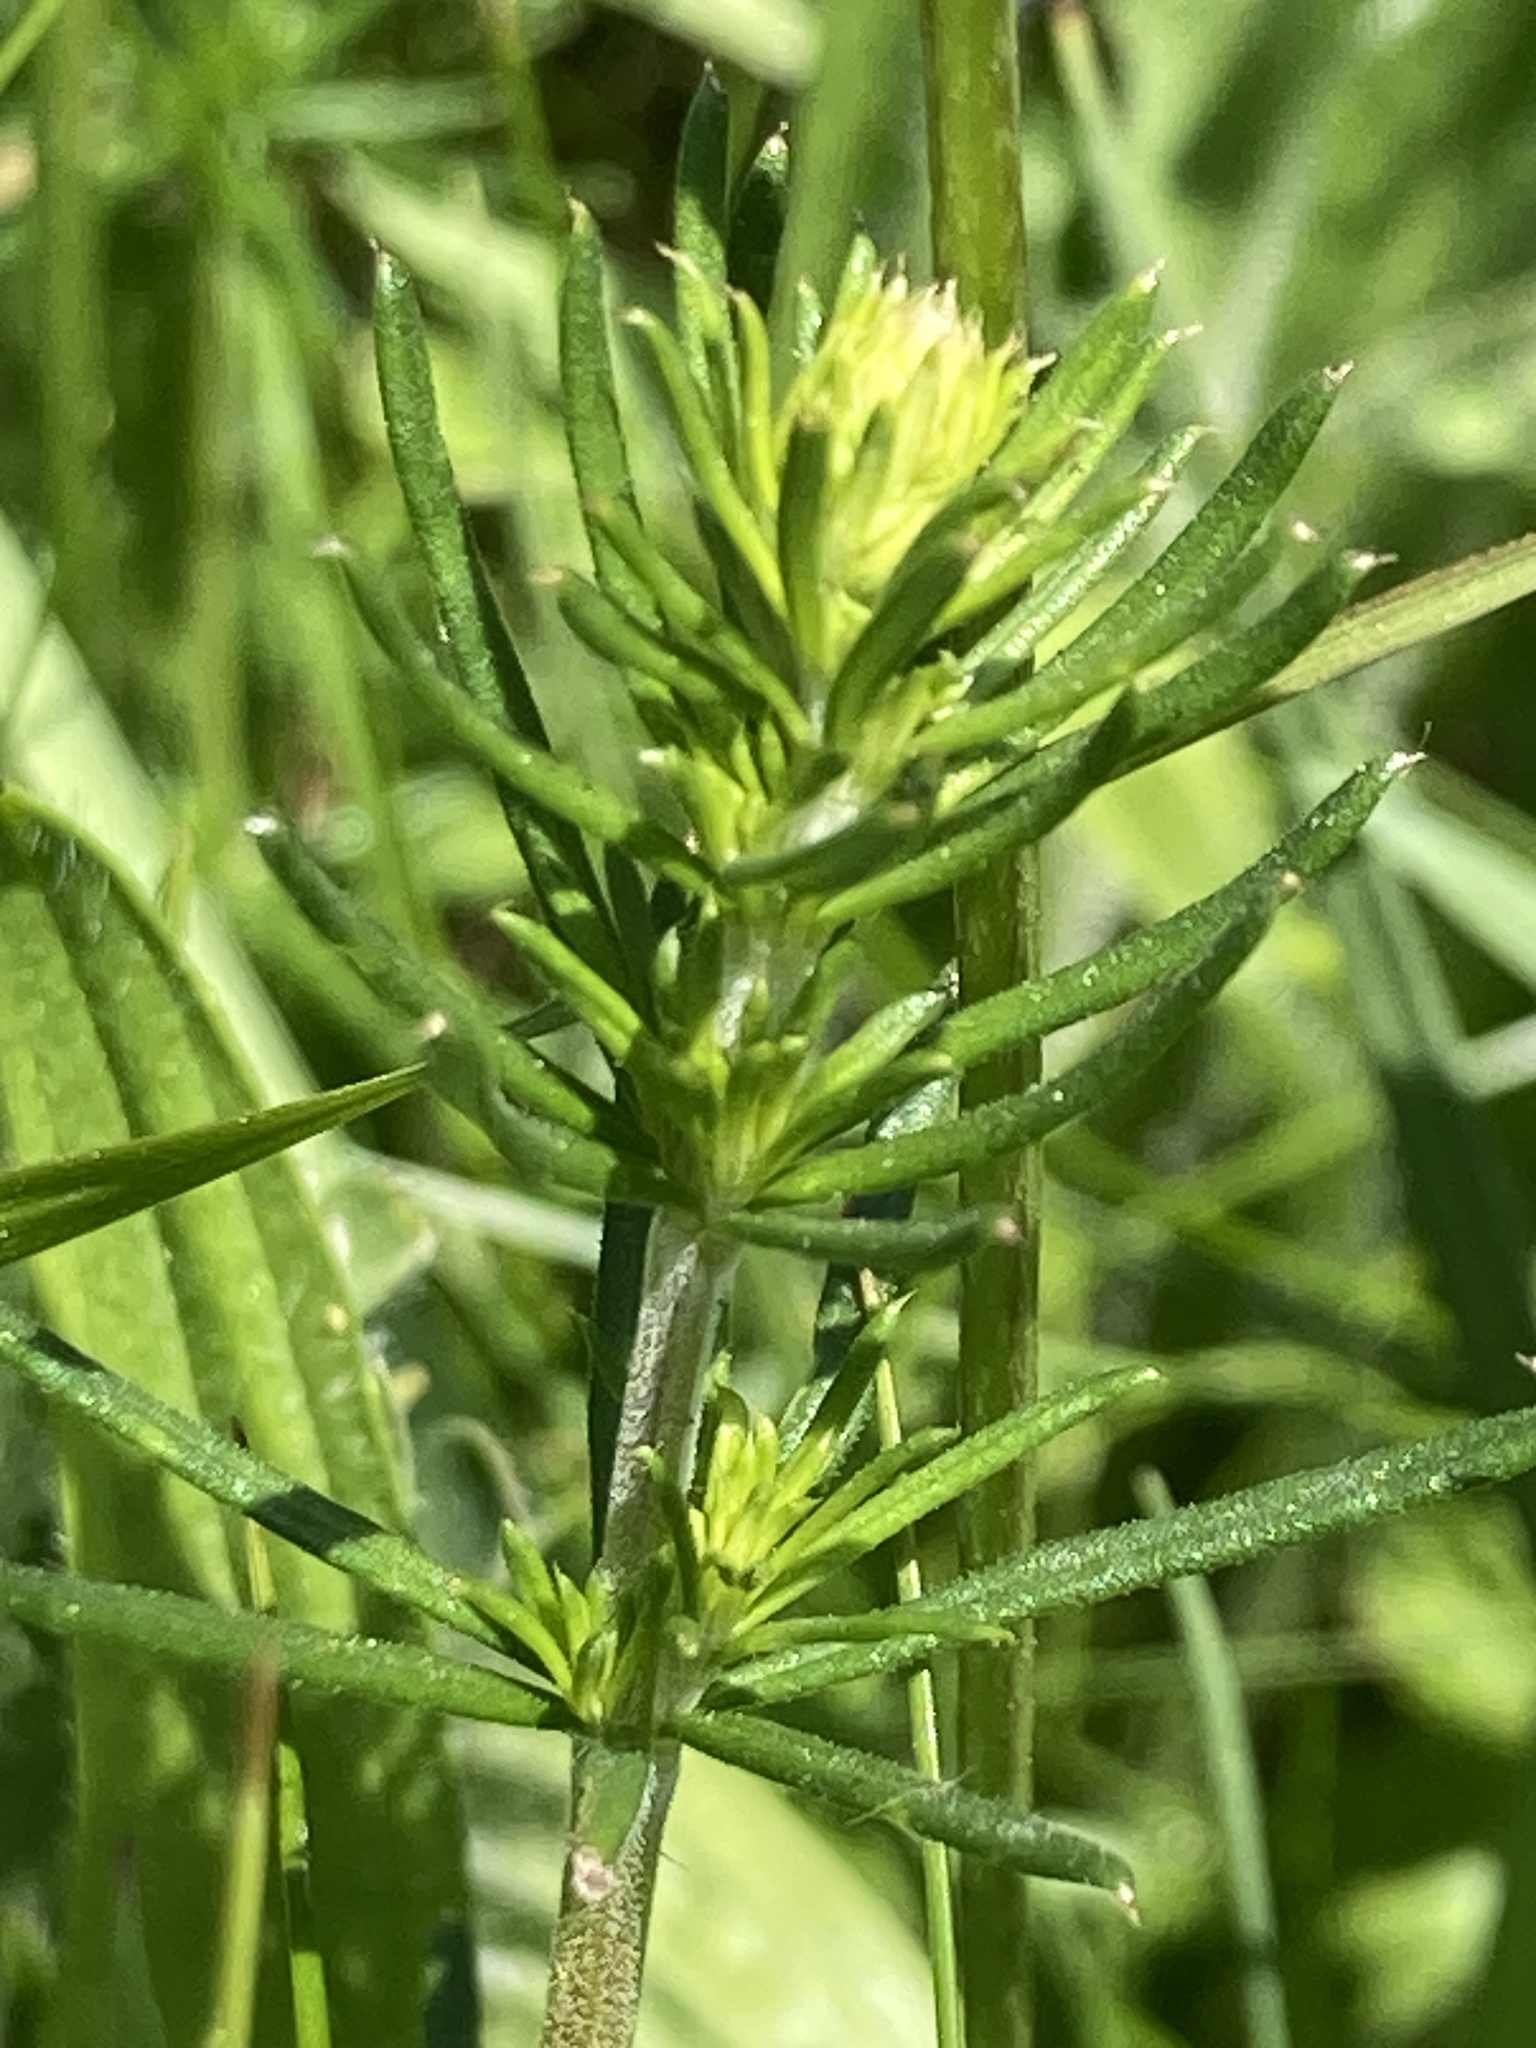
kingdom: Plantae
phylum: Tracheophyta
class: Magnoliopsida
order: Gentianales
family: Rubiaceae
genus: Galium
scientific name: Galium verum
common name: Lady's bedstraw
